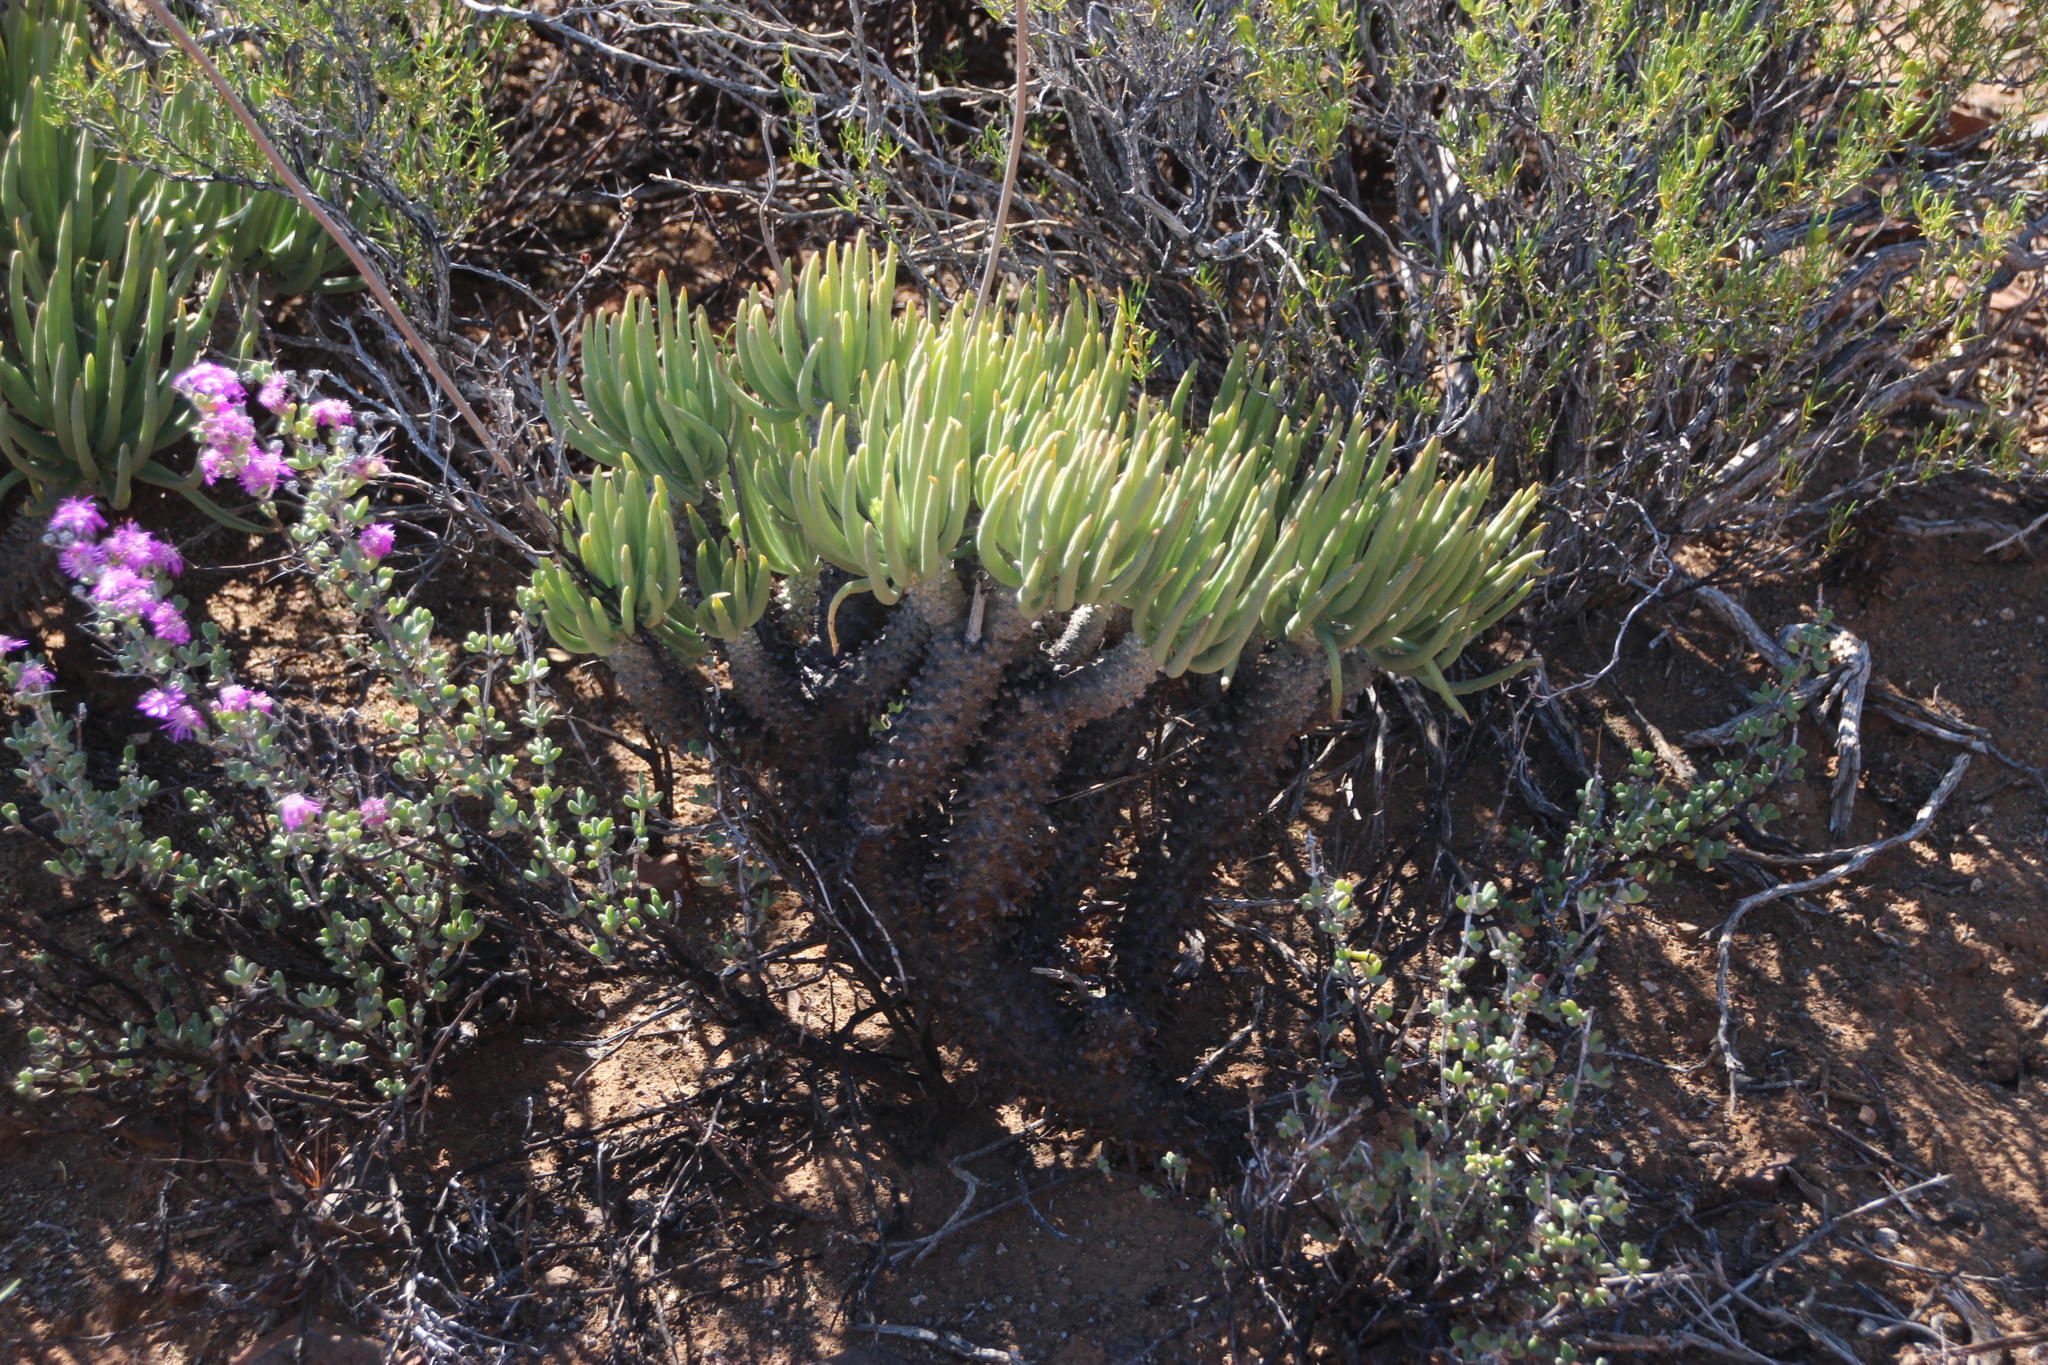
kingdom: Plantae
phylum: Tracheophyta
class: Magnoliopsida
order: Saxifragales
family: Crassulaceae
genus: Tylecodon
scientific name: Tylecodon wallichii
